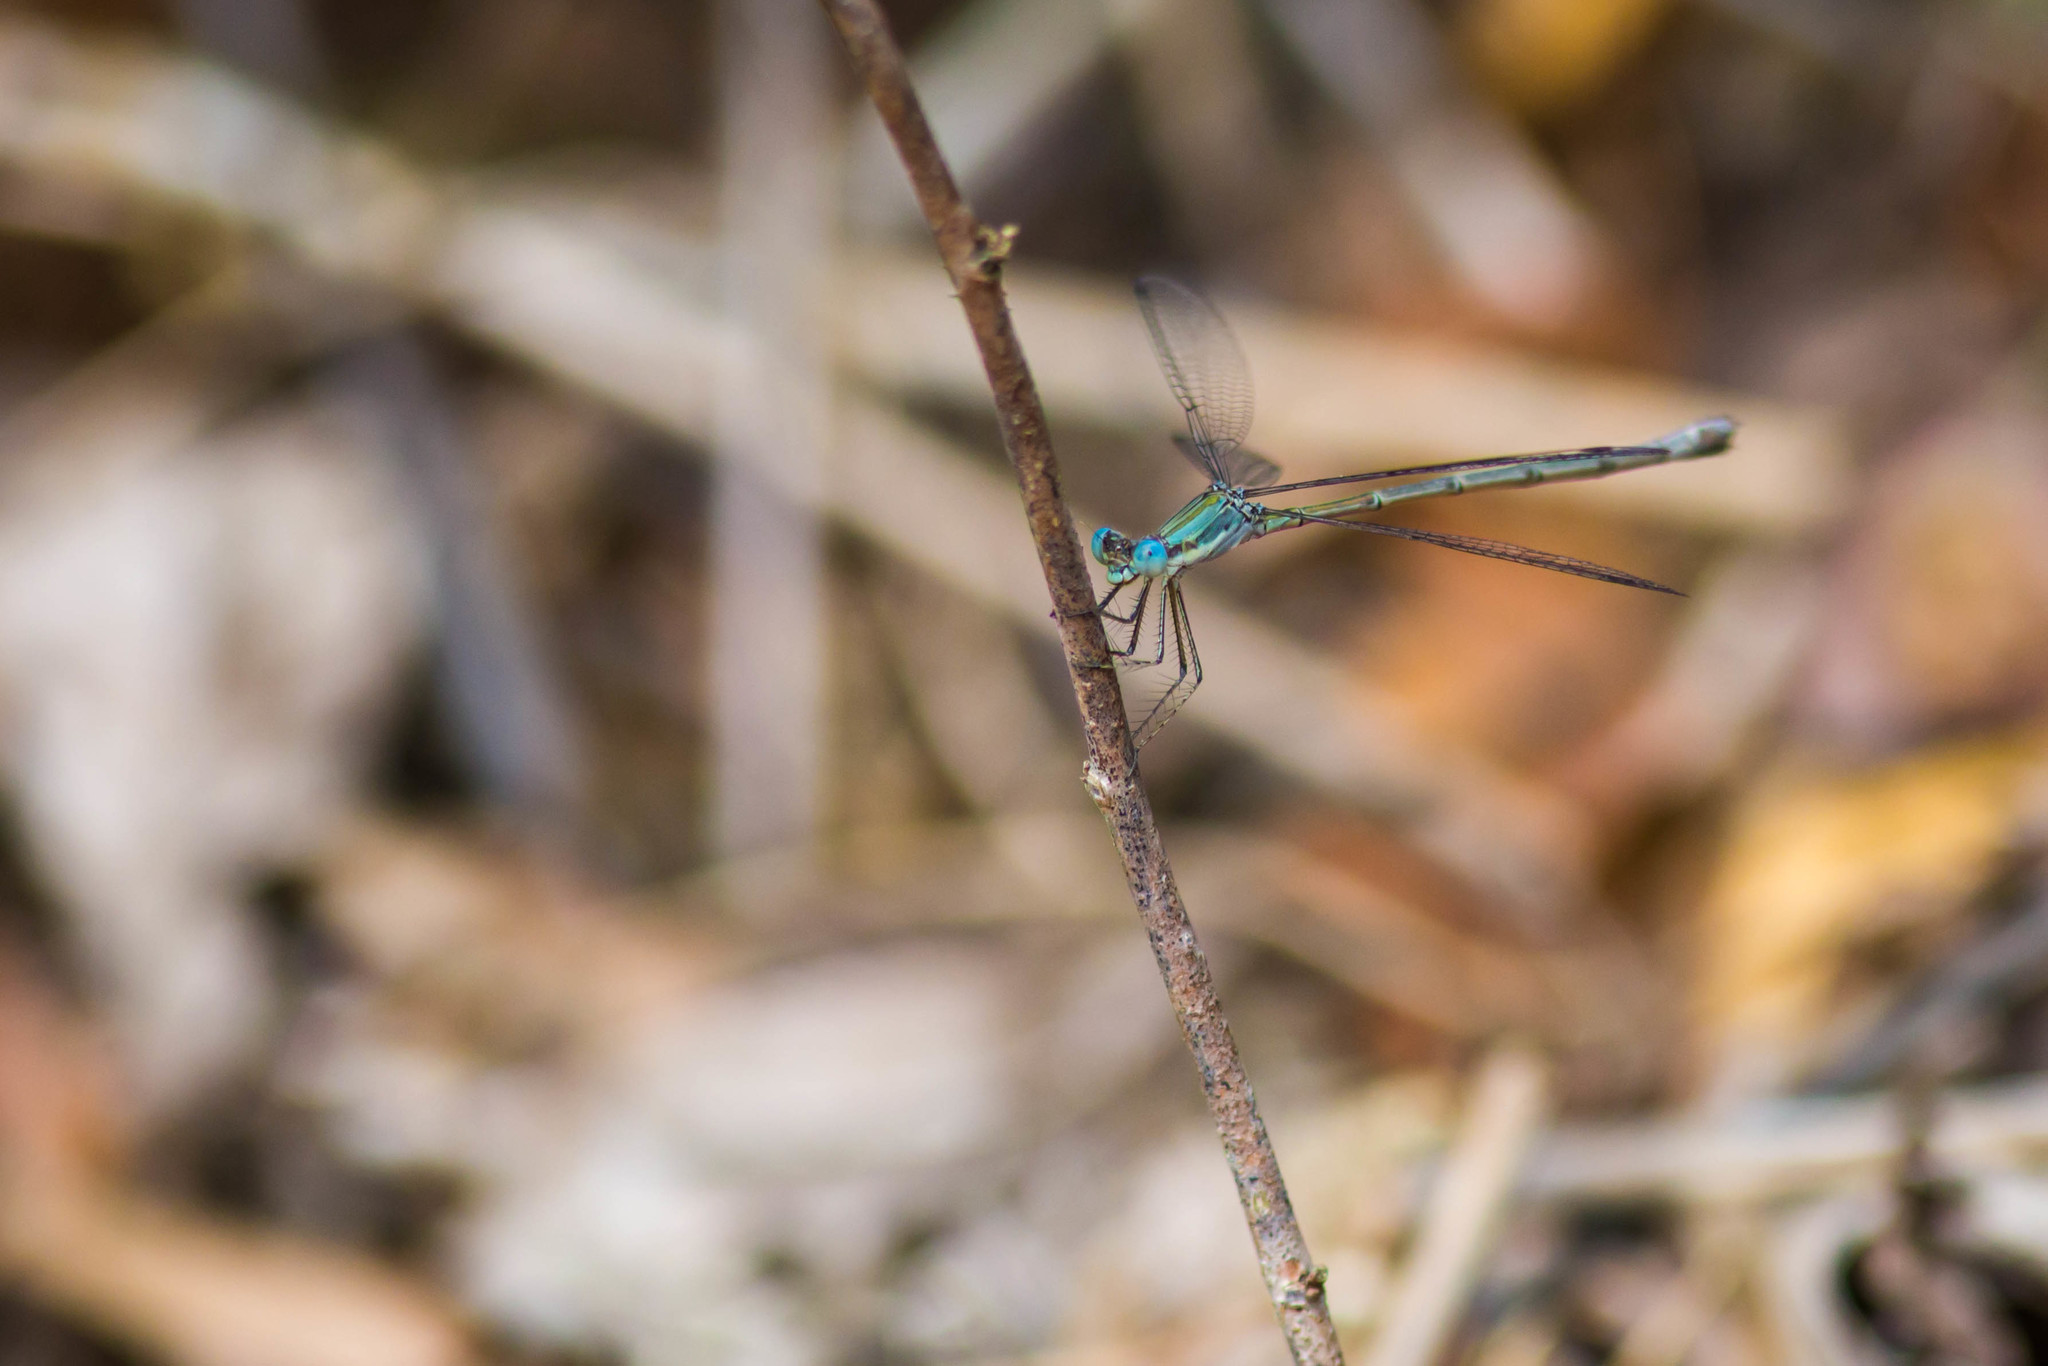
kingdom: Animalia
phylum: Arthropoda
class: Insecta
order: Odonata
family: Lestidae
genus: Lestes
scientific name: Lestes forficula
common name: Rainpool spreadwing
